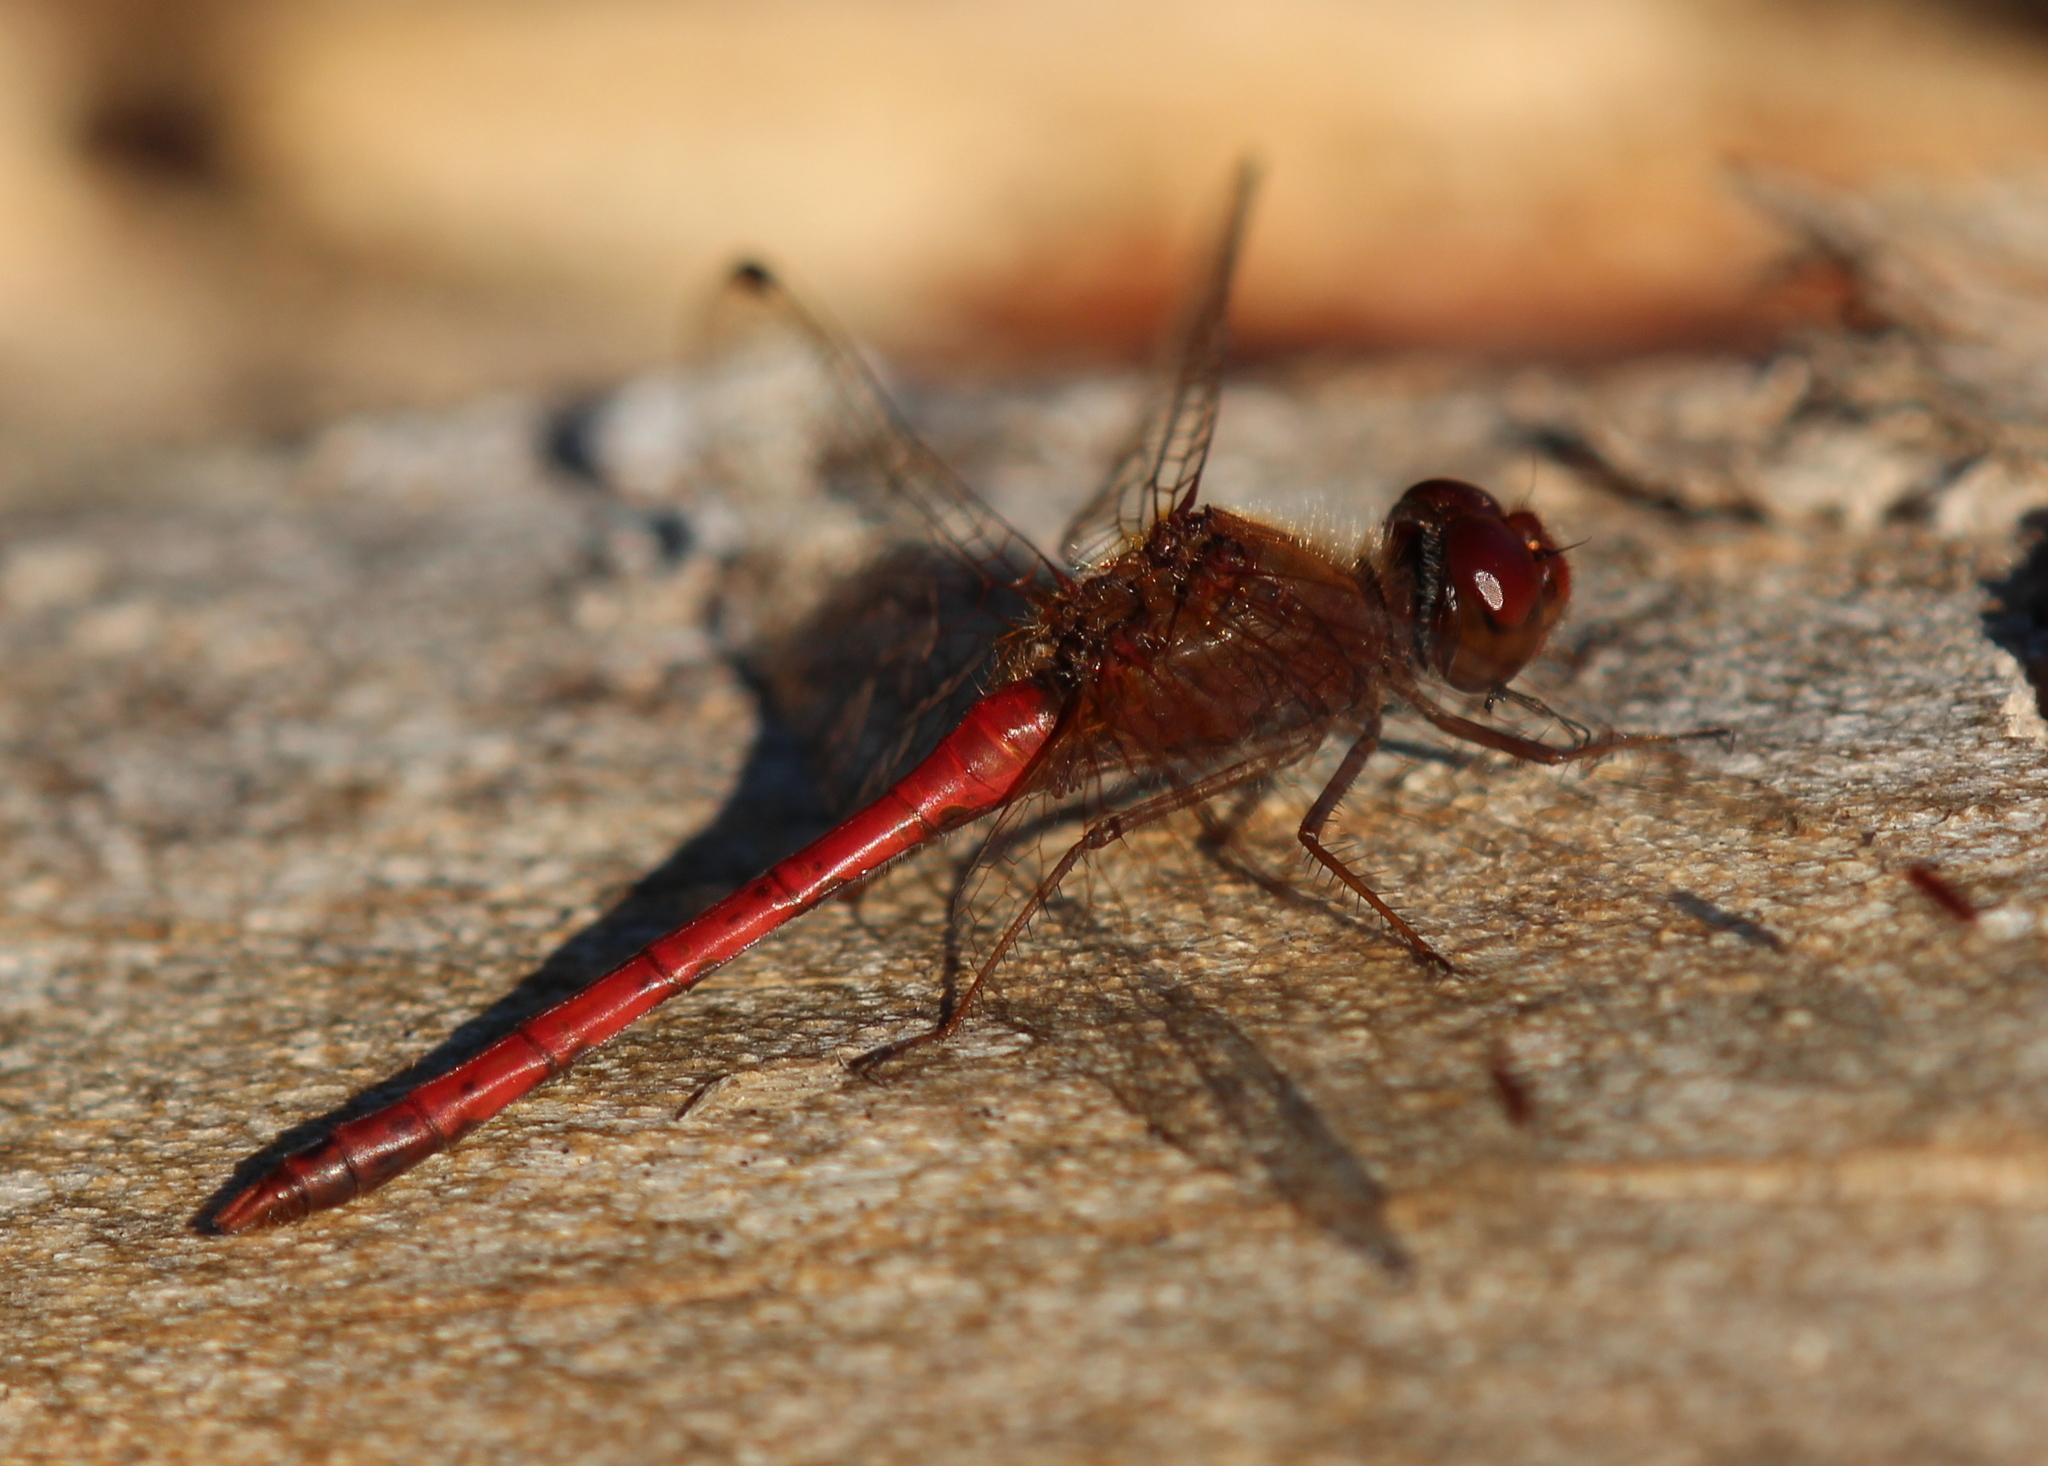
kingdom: Animalia
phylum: Arthropoda
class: Insecta
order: Odonata
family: Libellulidae
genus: Sympetrum
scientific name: Sympetrum vicinum
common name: Autumn meadowhawk
